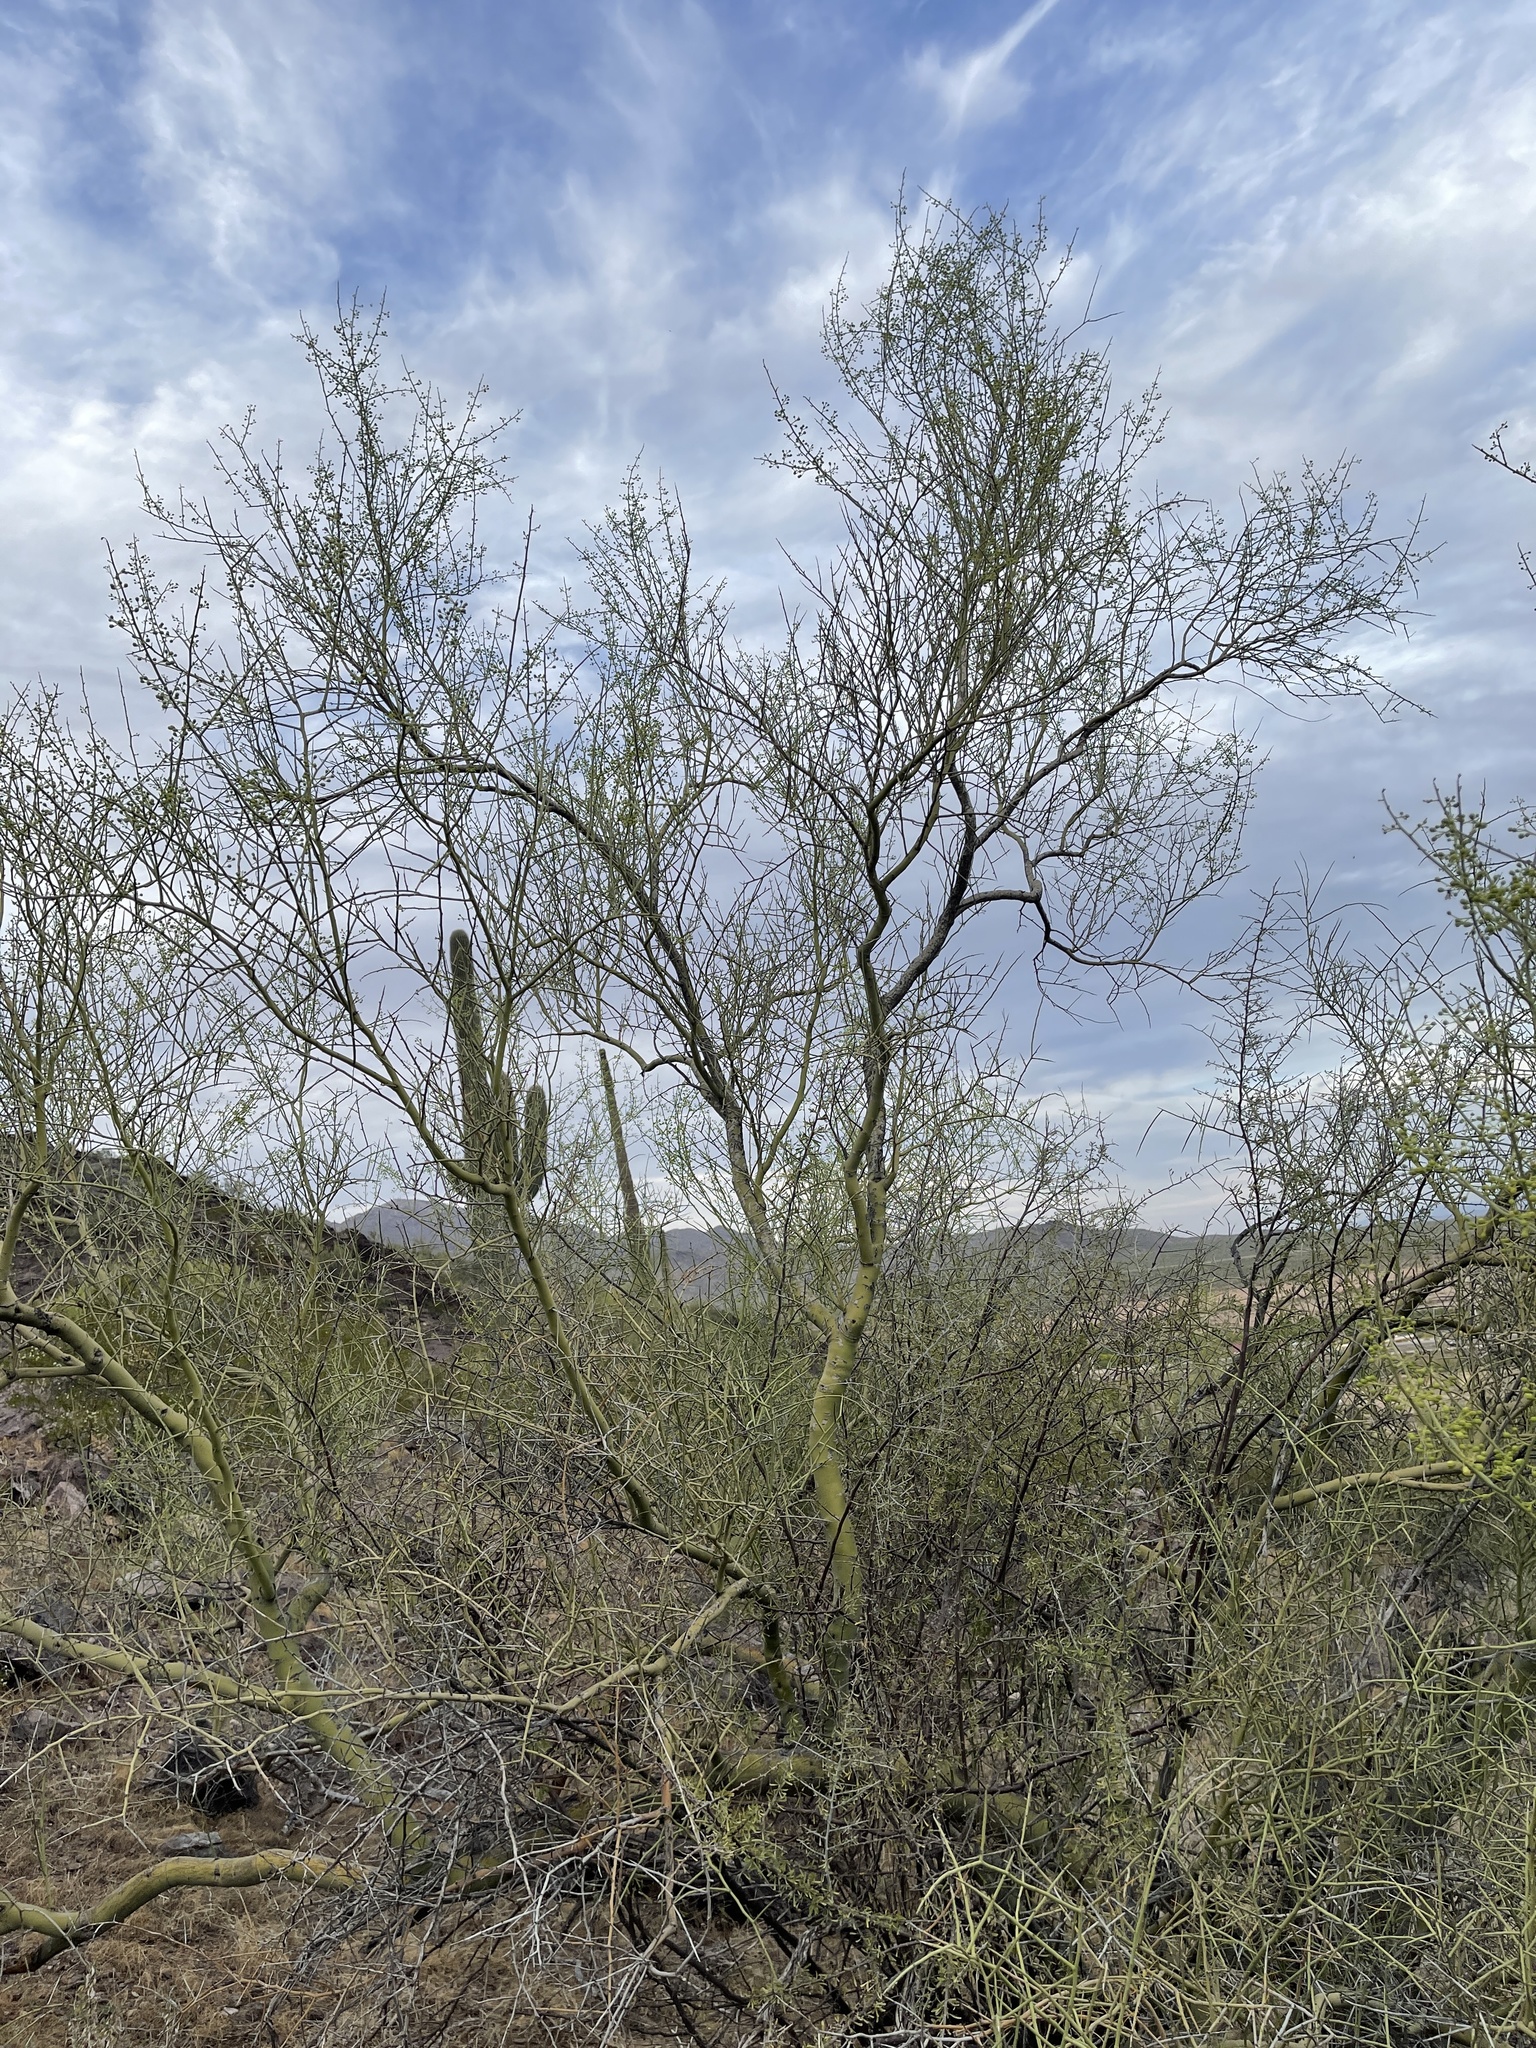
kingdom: Plantae
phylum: Tracheophyta
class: Magnoliopsida
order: Fabales
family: Fabaceae
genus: Parkinsonia
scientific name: Parkinsonia microphylla
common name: Yellow paloverde
